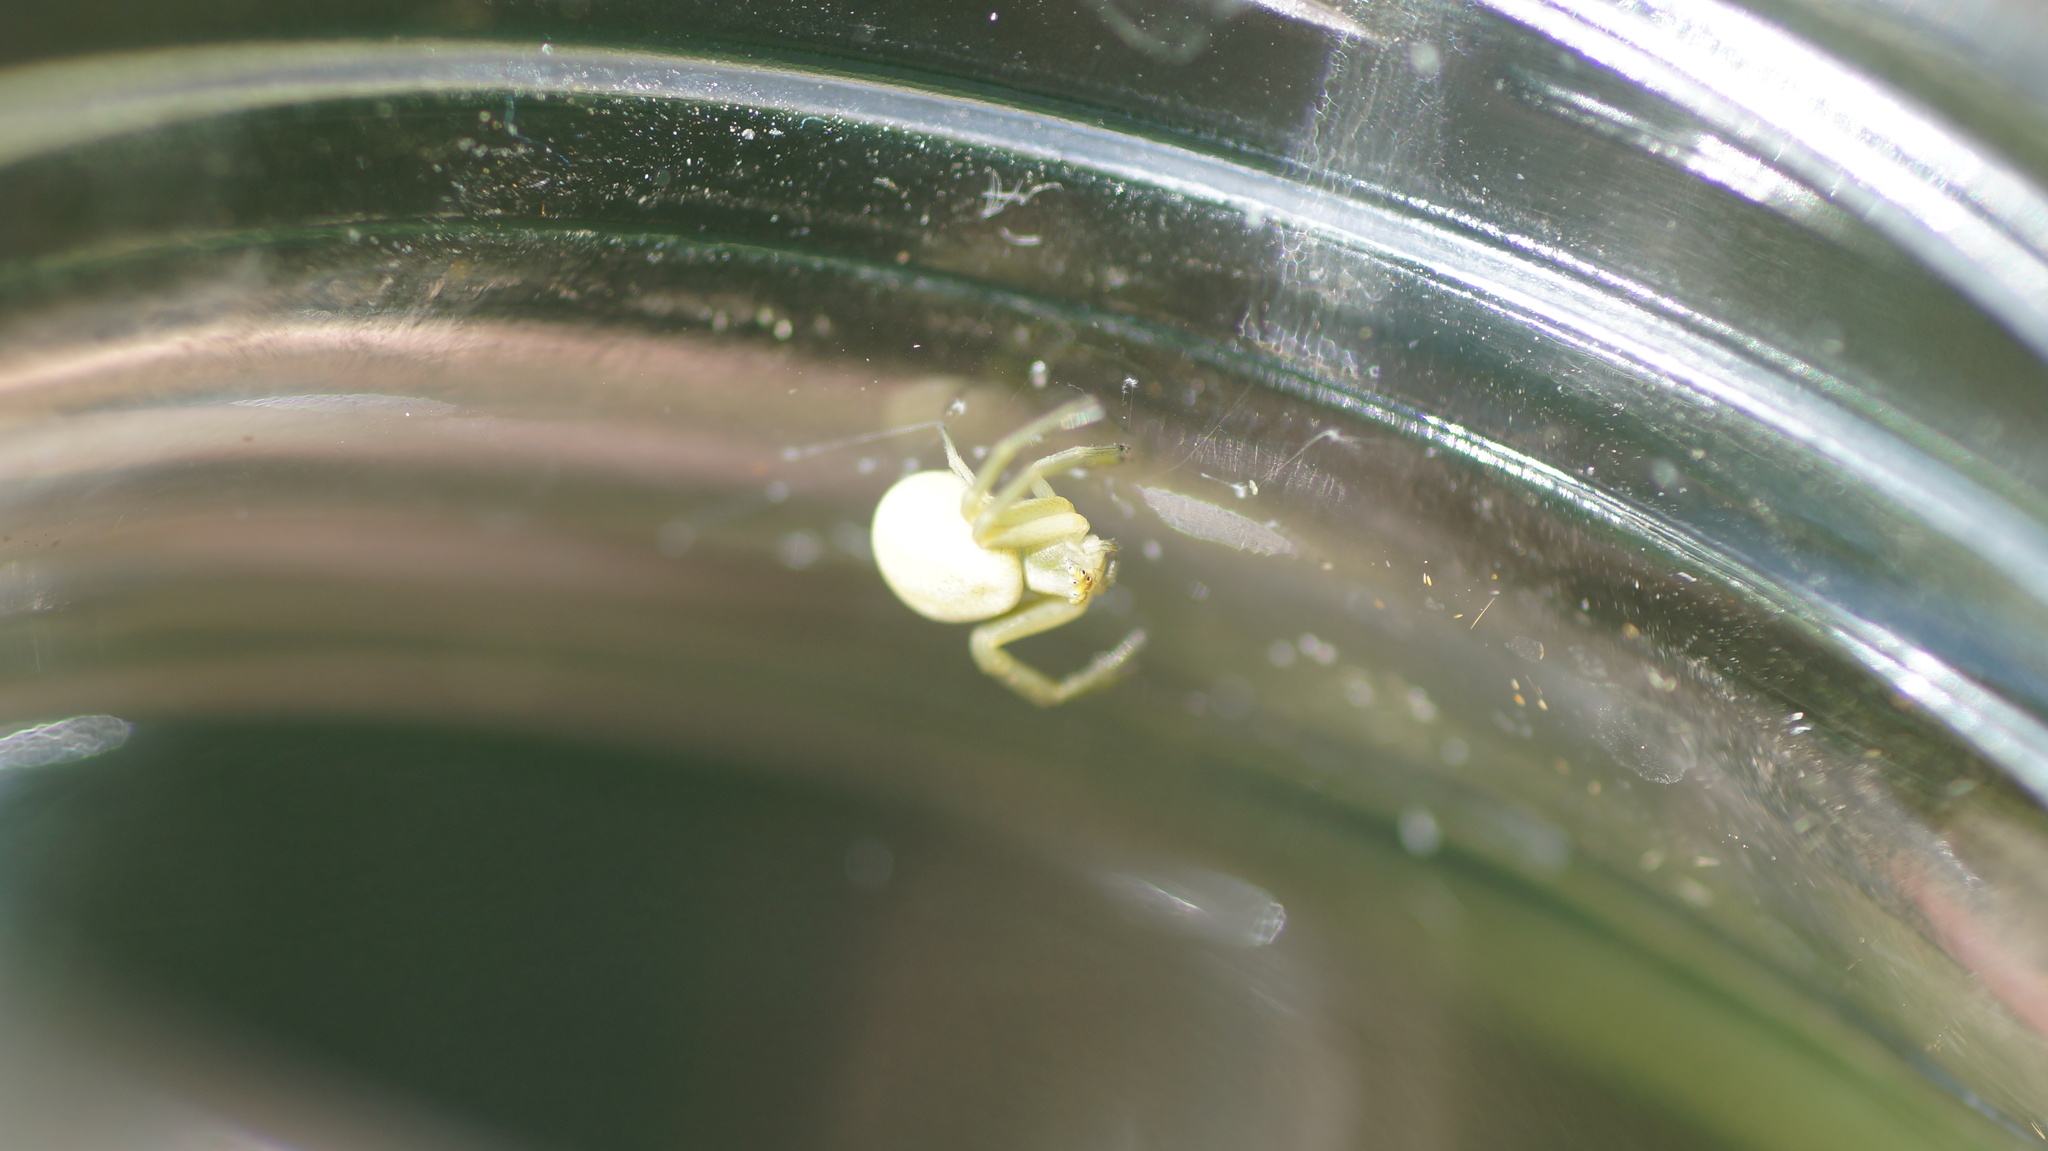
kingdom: Animalia
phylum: Arthropoda
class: Arachnida
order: Araneae
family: Thomisidae
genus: Misumena
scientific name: Misumena vatia
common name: Goldenrod crab spider
